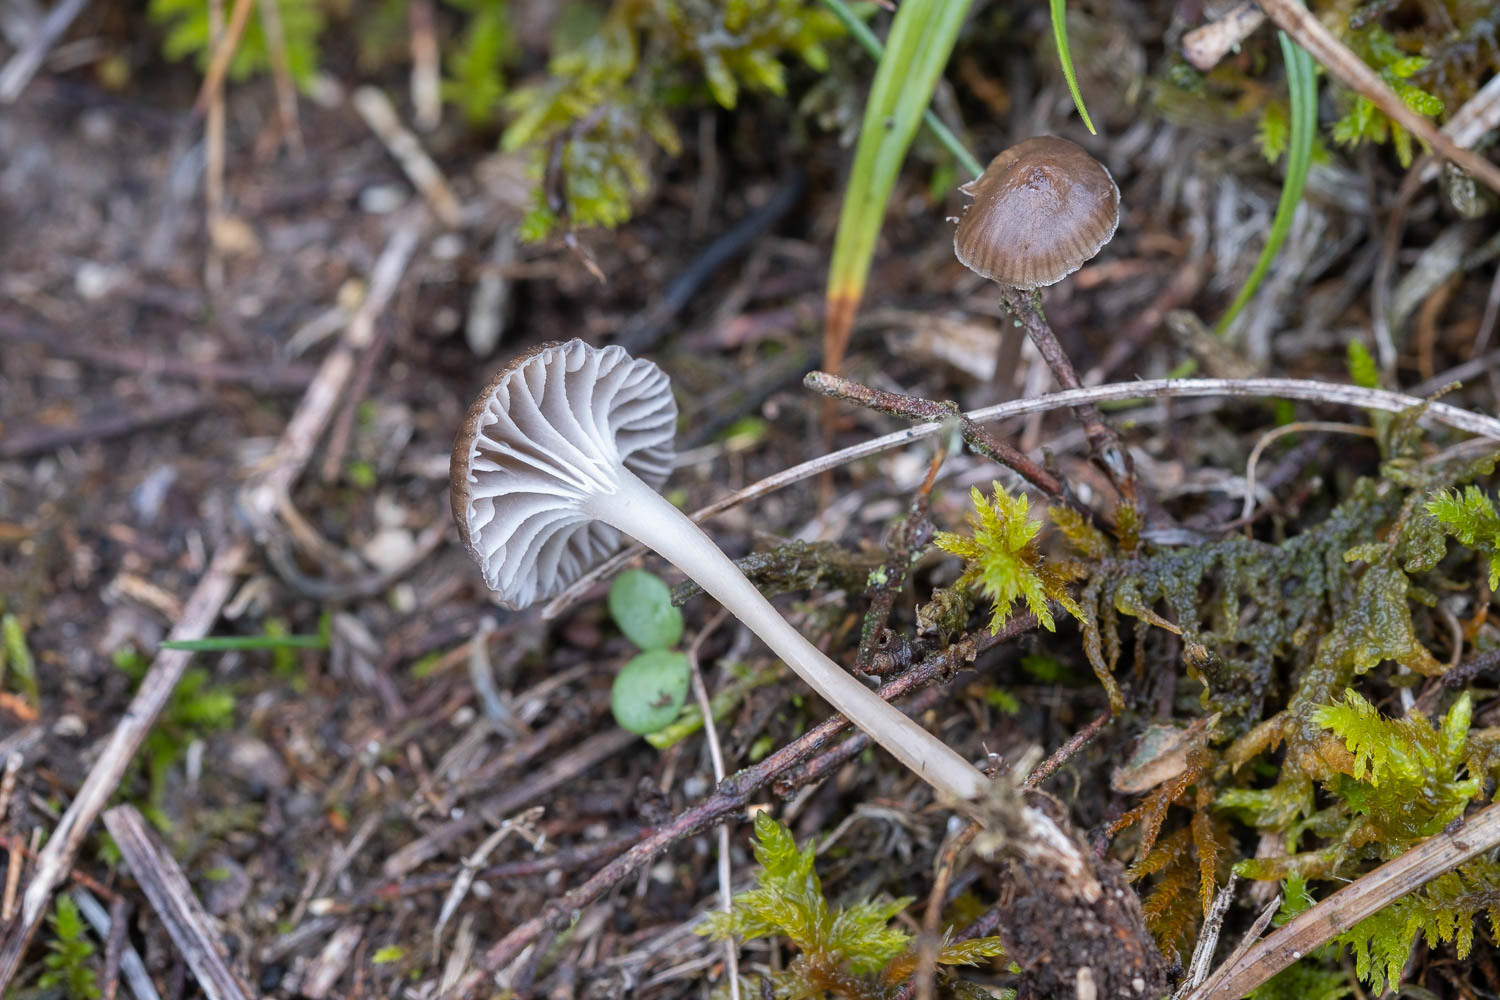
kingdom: Fungi
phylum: Basidiomycota
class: Agaricomycetes
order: Agaricales
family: Mycenaceae
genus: Mycena
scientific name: Mycena pseudopicta
